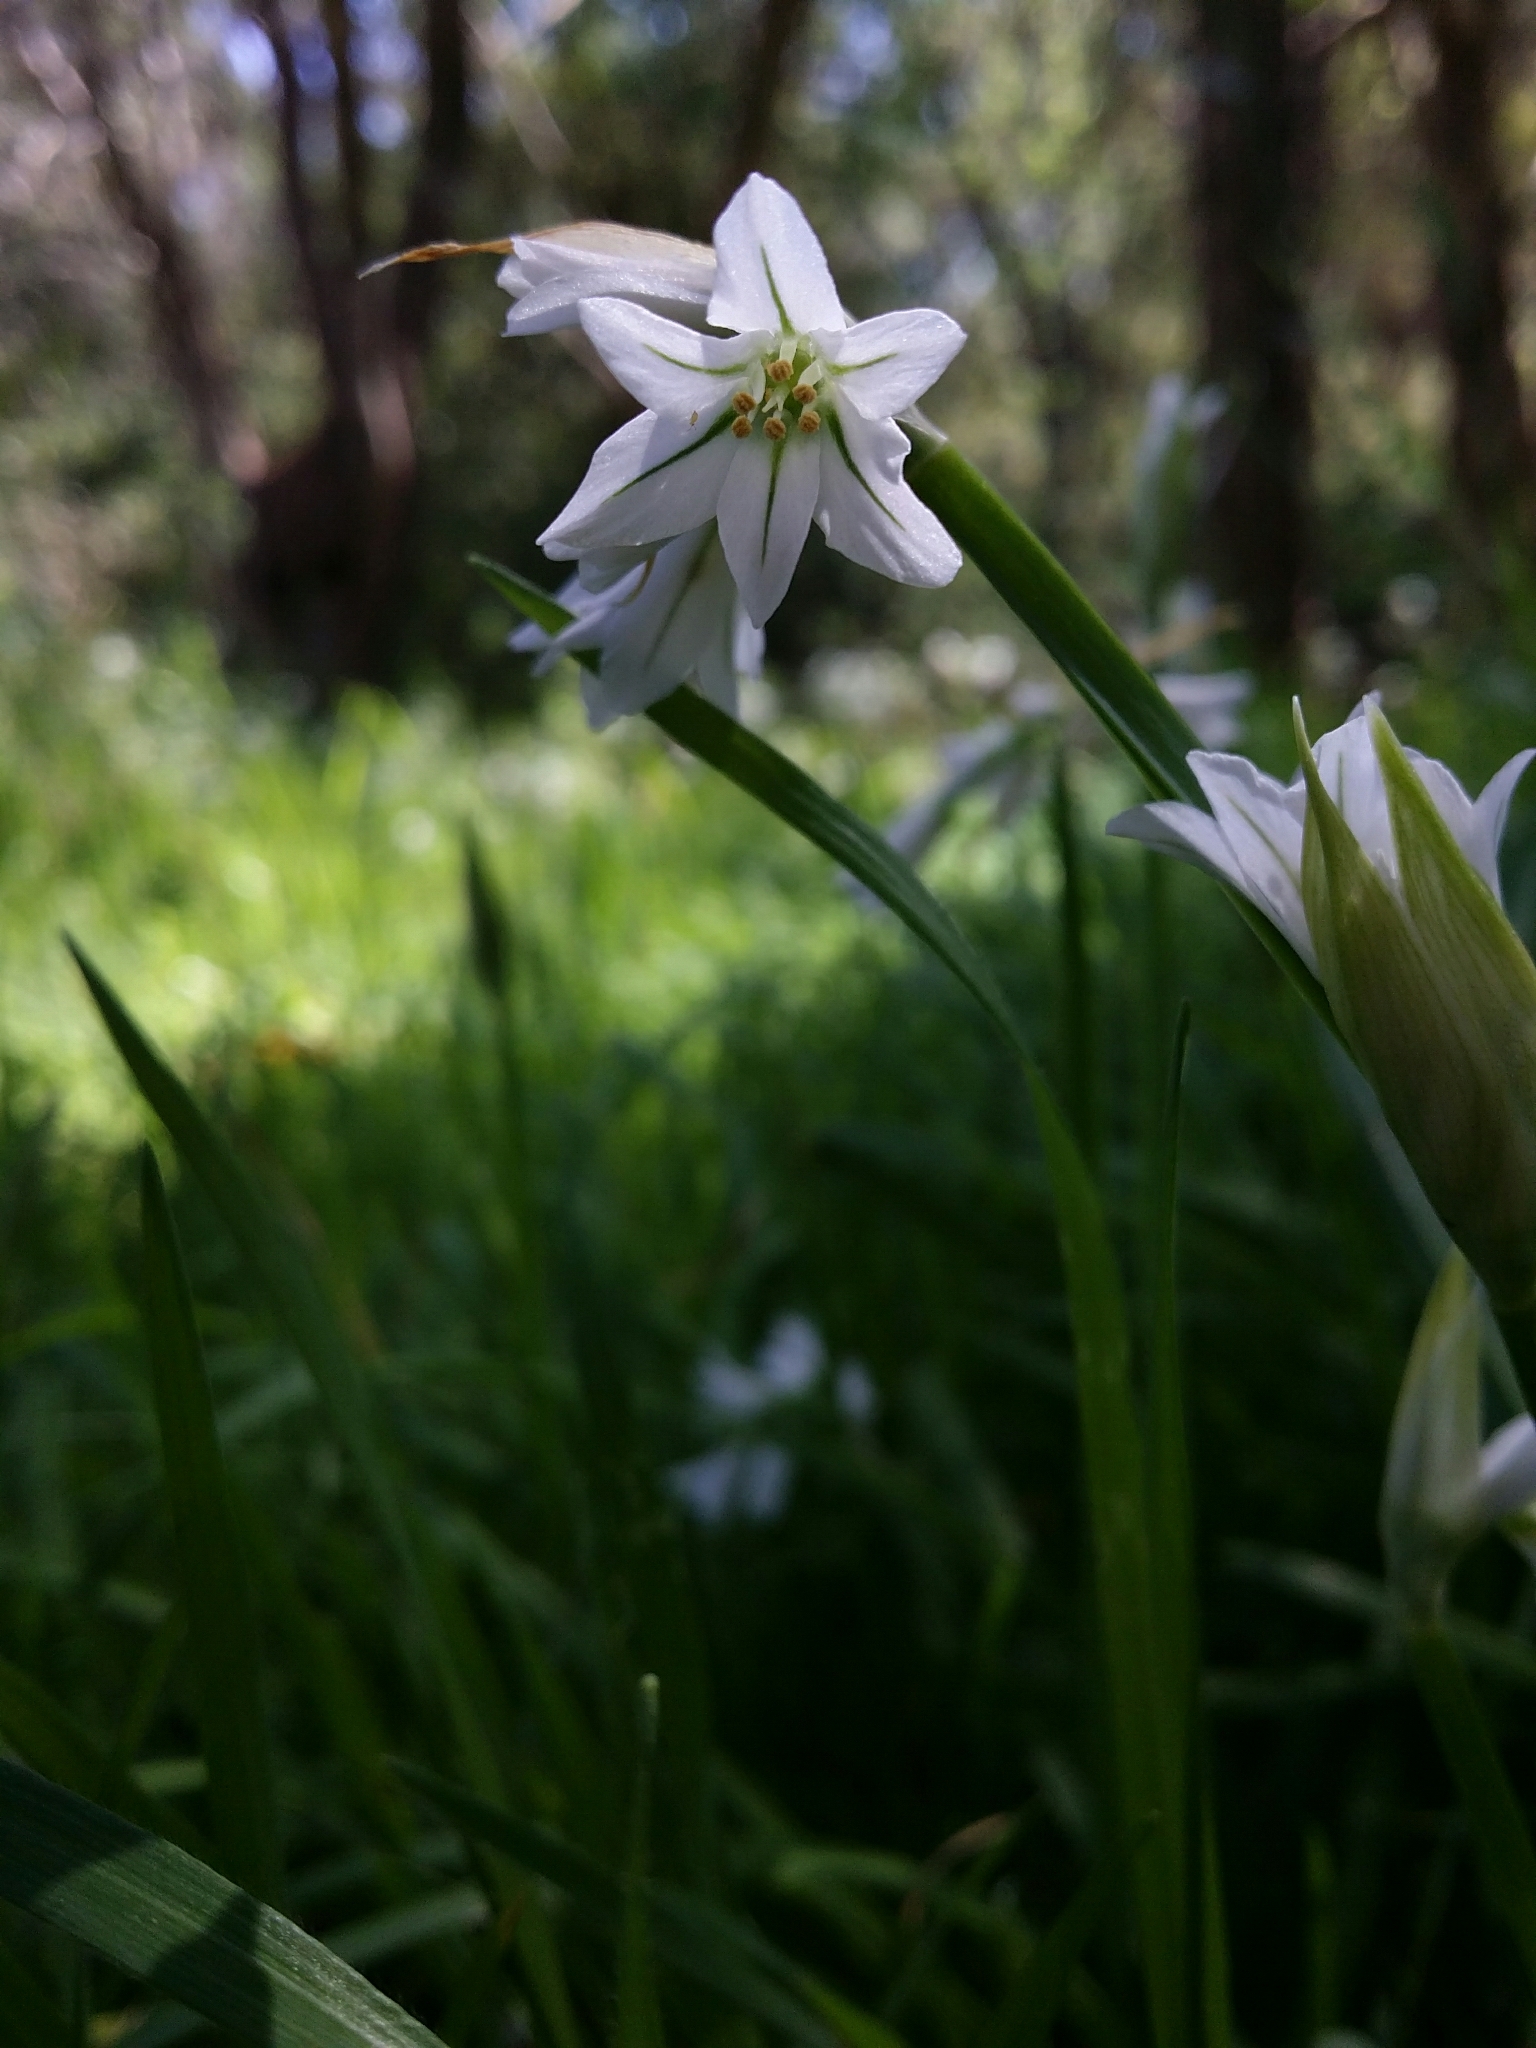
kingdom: Plantae
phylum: Tracheophyta
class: Liliopsida
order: Asparagales
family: Amaryllidaceae
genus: Allium
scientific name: Allium triquetrum
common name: Three-cornered garlic
